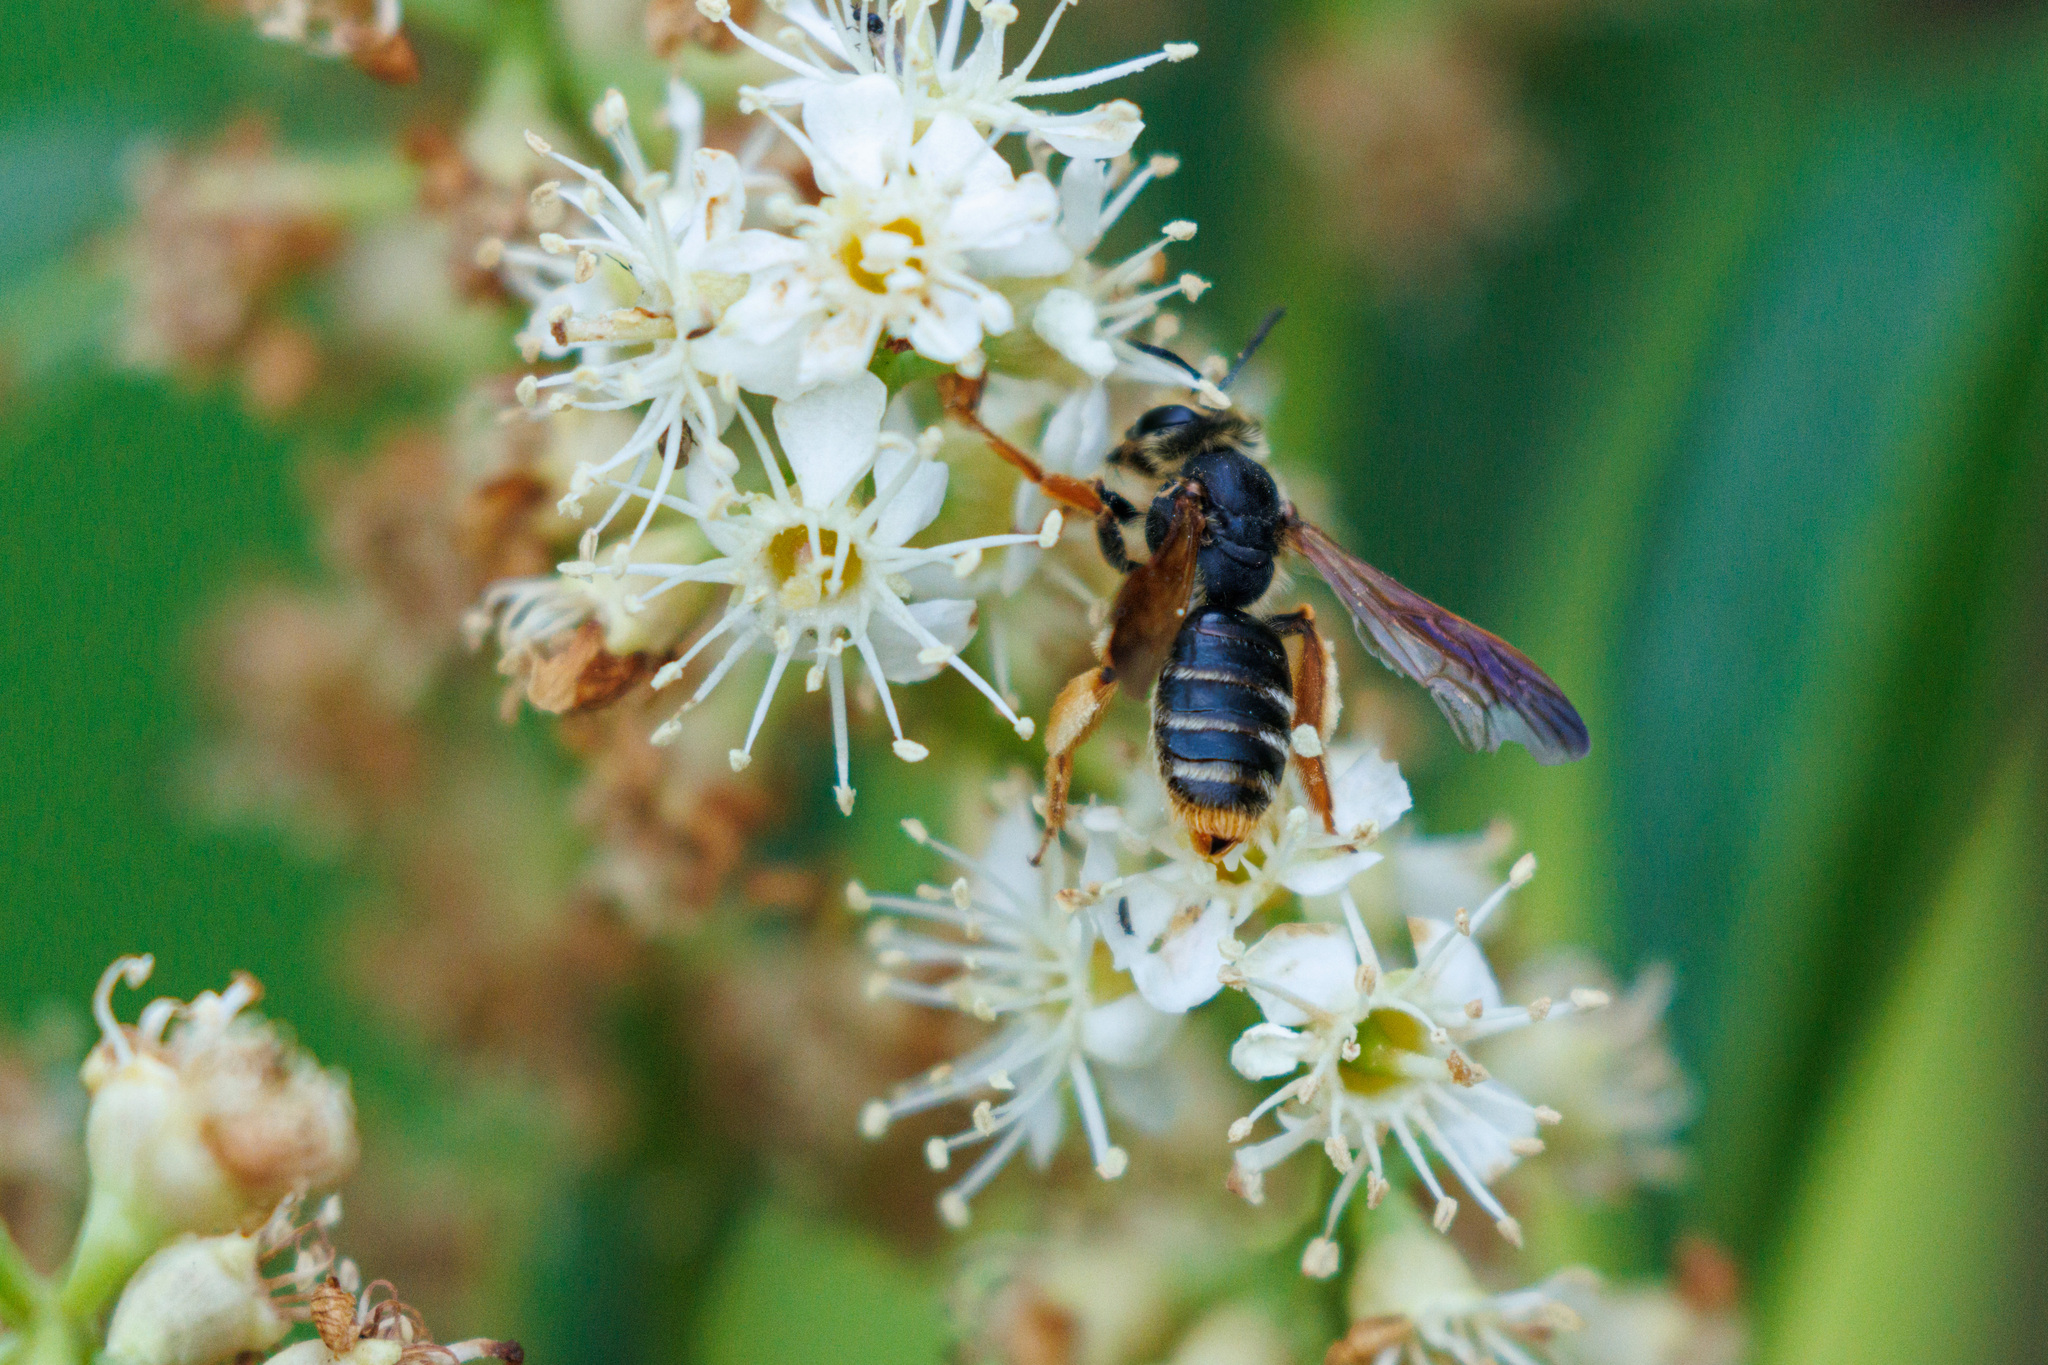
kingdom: Animalia
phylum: Arthropoda
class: Insecta
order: Hymenoptera
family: Andrenidae
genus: Andrena
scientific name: Andrena prunorum
